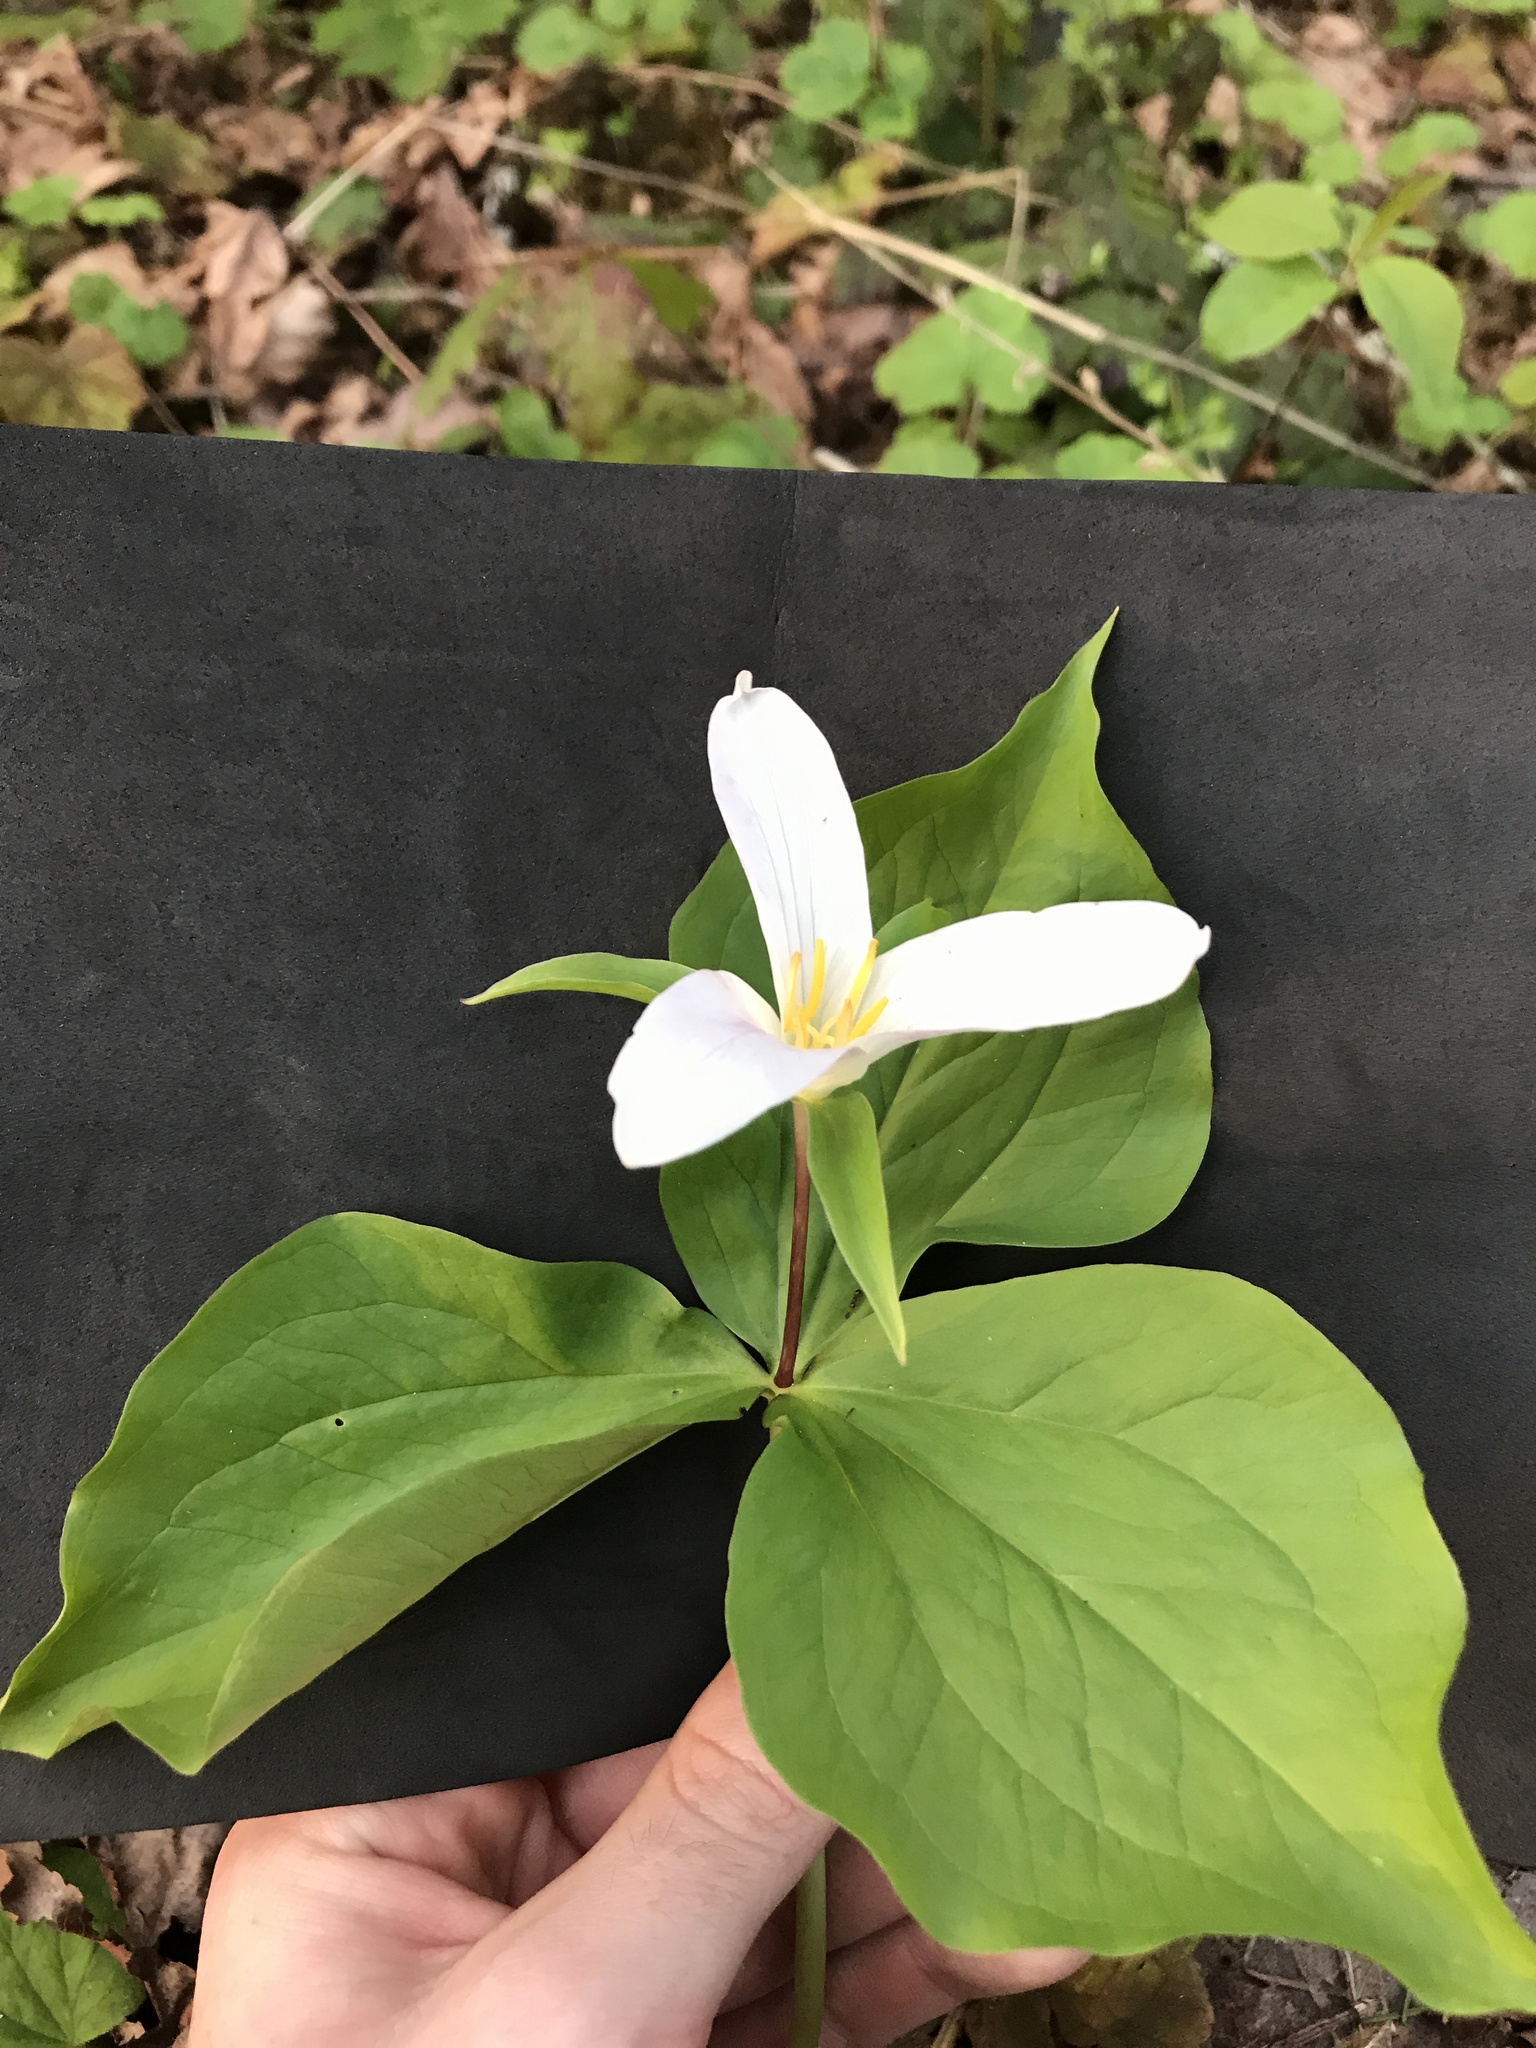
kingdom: Plantae
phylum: Tracheophyta
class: Liliopsida
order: Liliales
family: Melanthiaceae
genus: Trillium
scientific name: Trillium ovatum
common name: Pacific trillium
